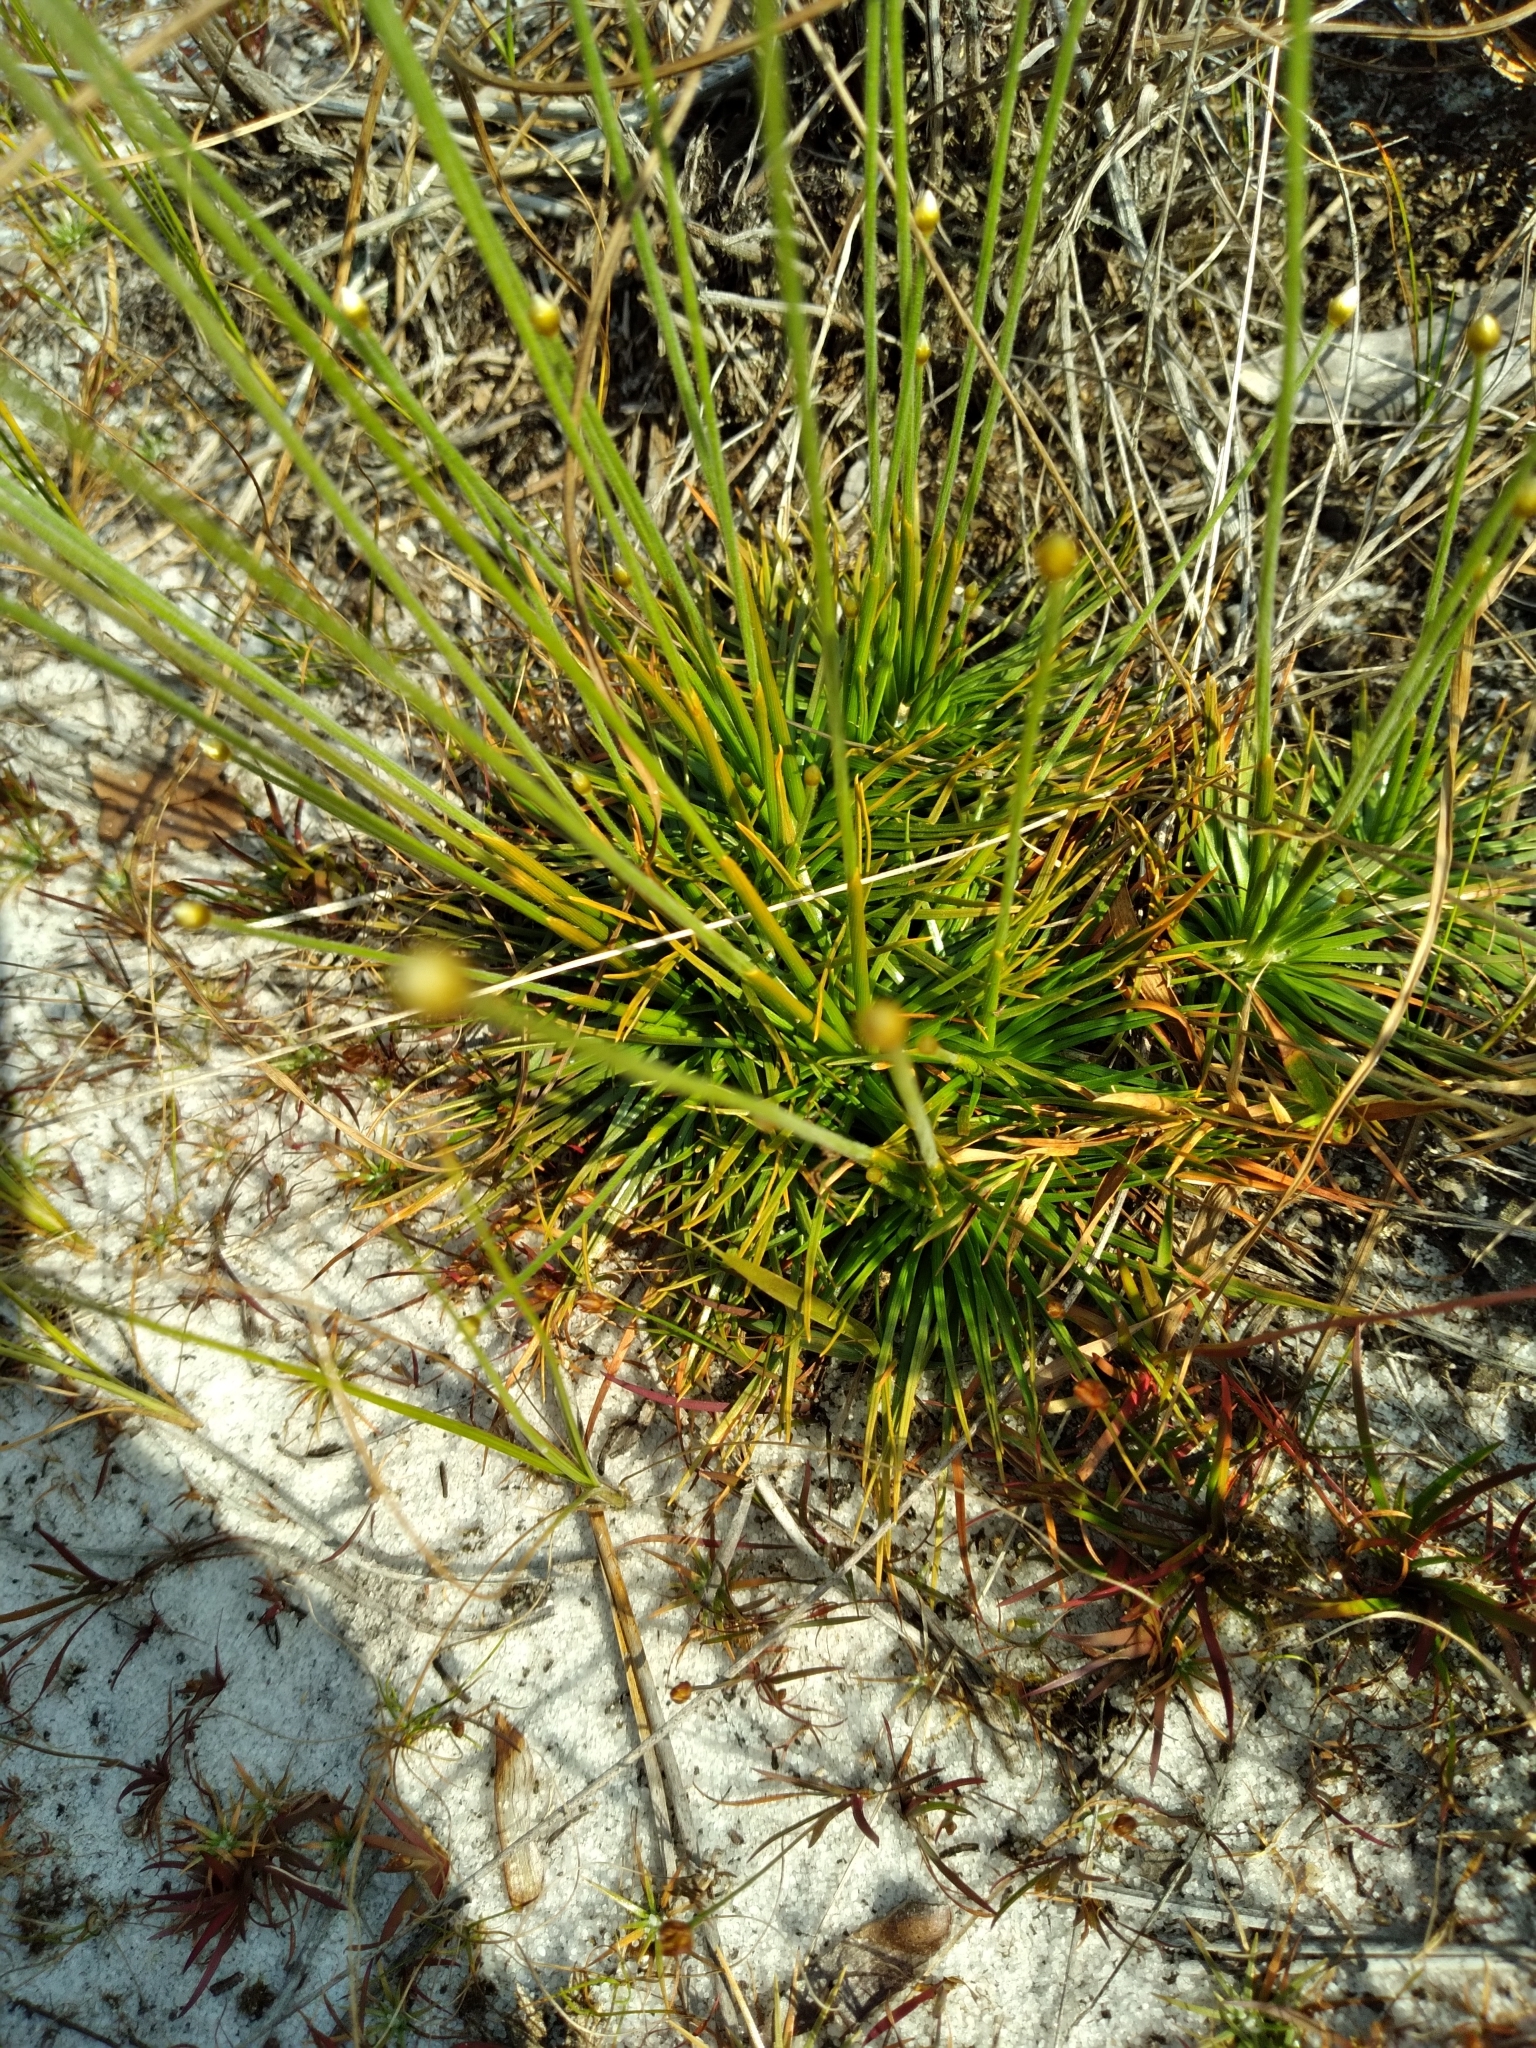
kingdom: Plantae
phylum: Tracheophyta
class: Liliopsida
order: Poales
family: Eriocaulaceae
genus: Syngonanthus
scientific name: Syngonanthus flavidulus
